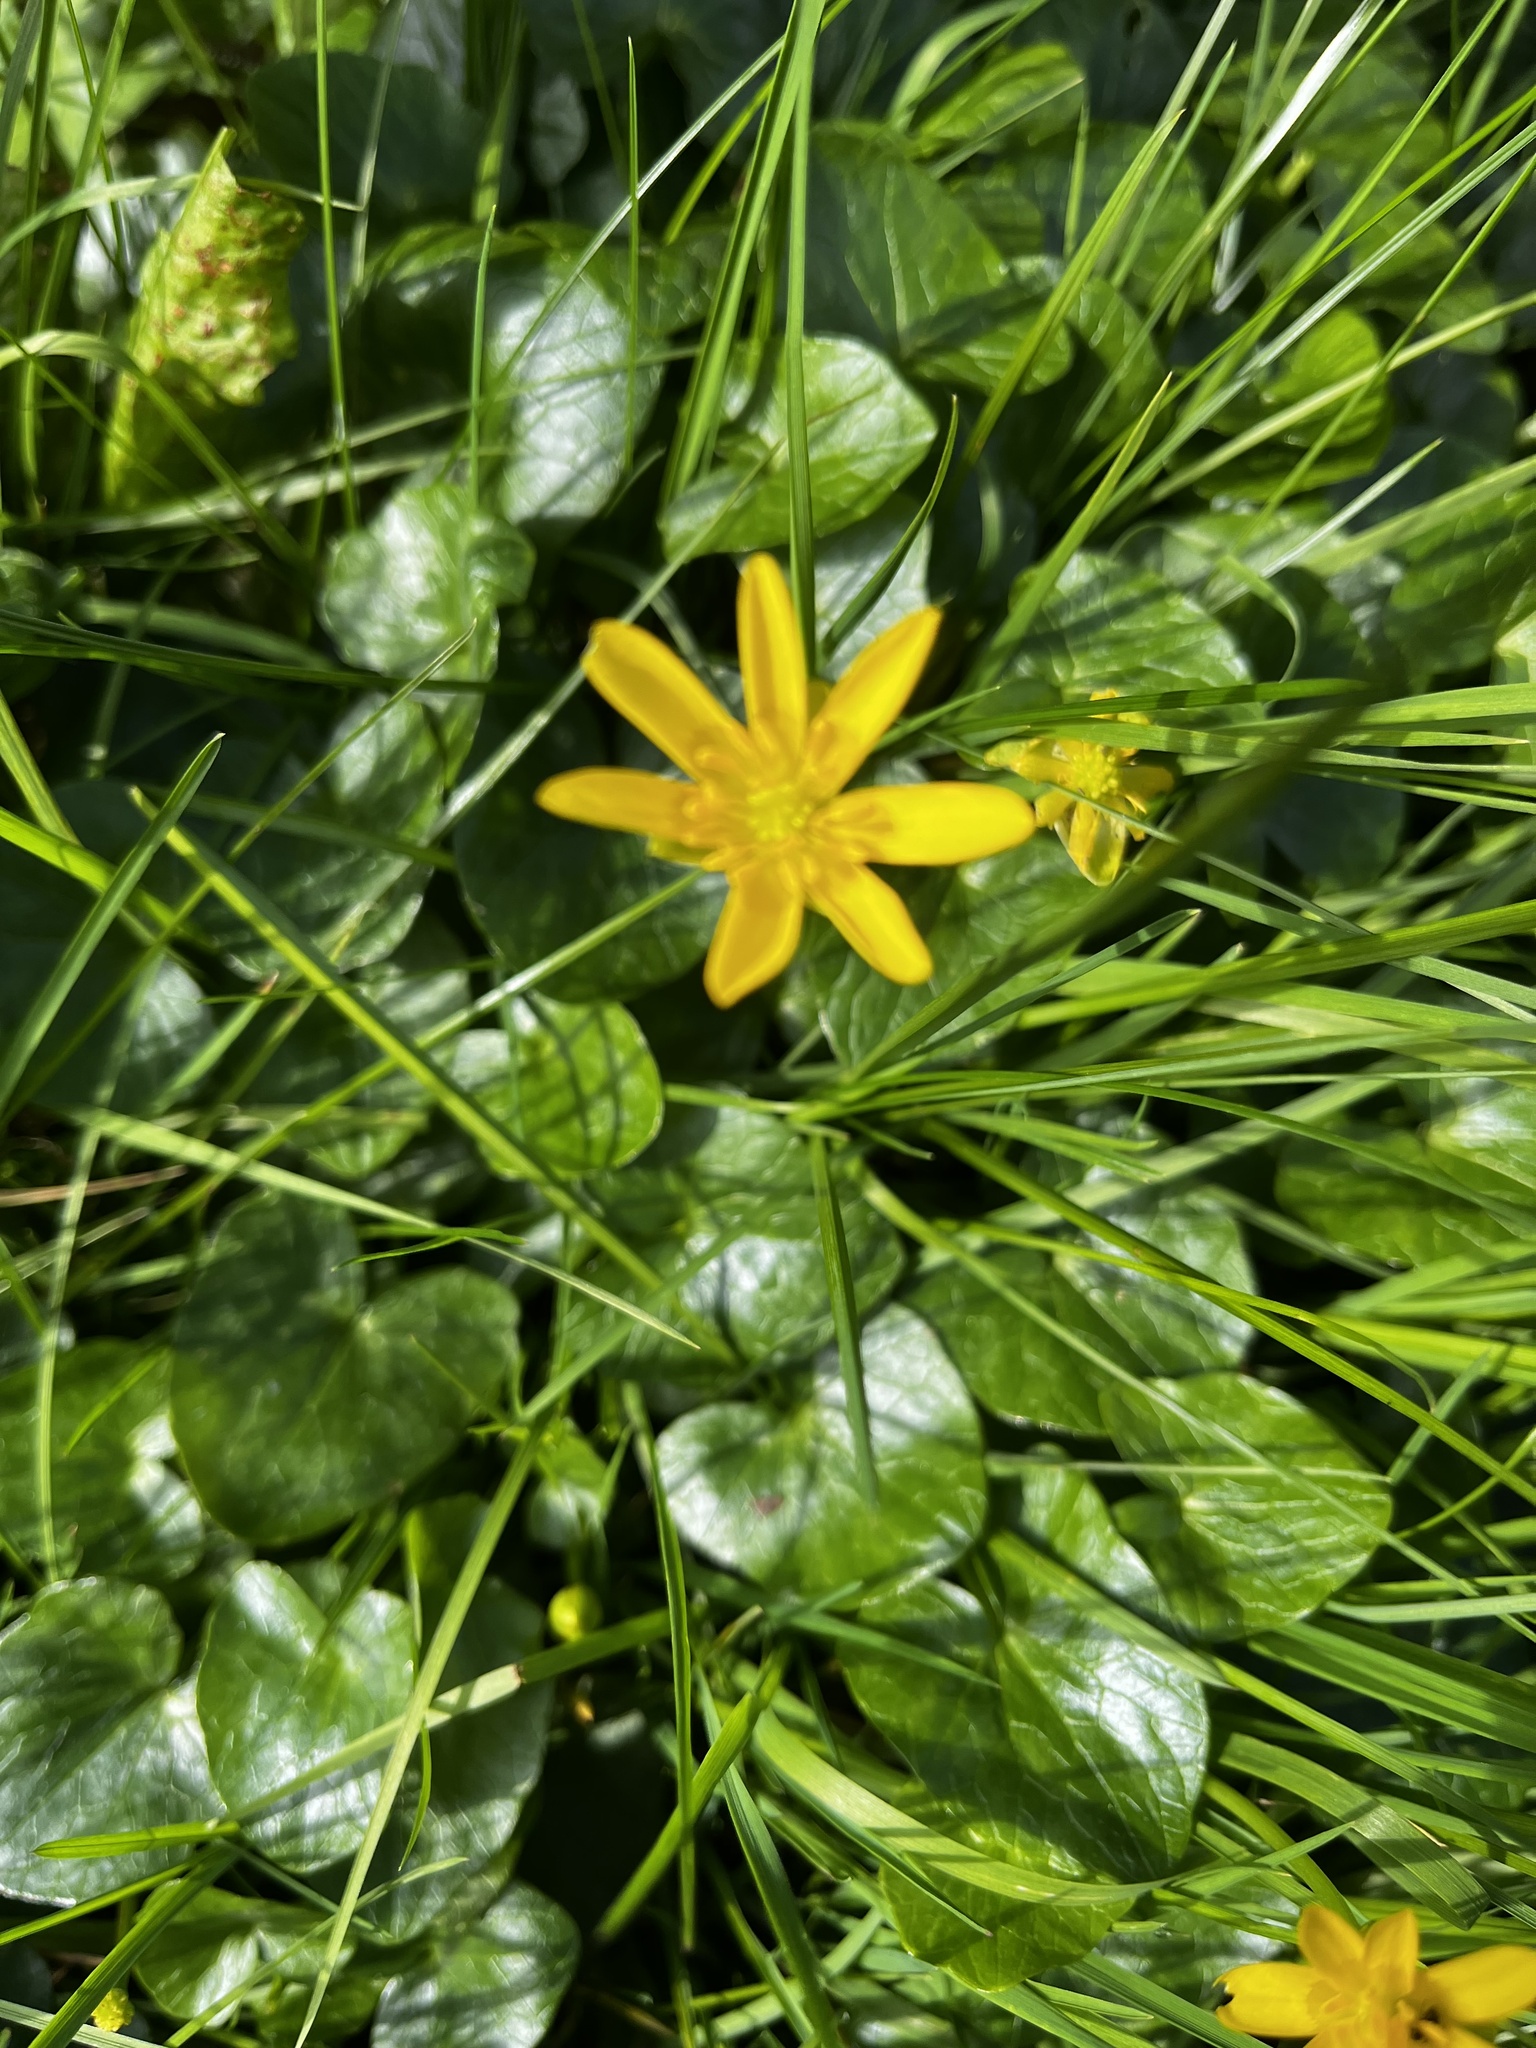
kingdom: Plantae
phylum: Tracheophyta
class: Magnoliopsida
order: Ranunculales
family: Ranunculaceae
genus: Ficaria
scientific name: Ficaria verna
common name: Lesser celandine
